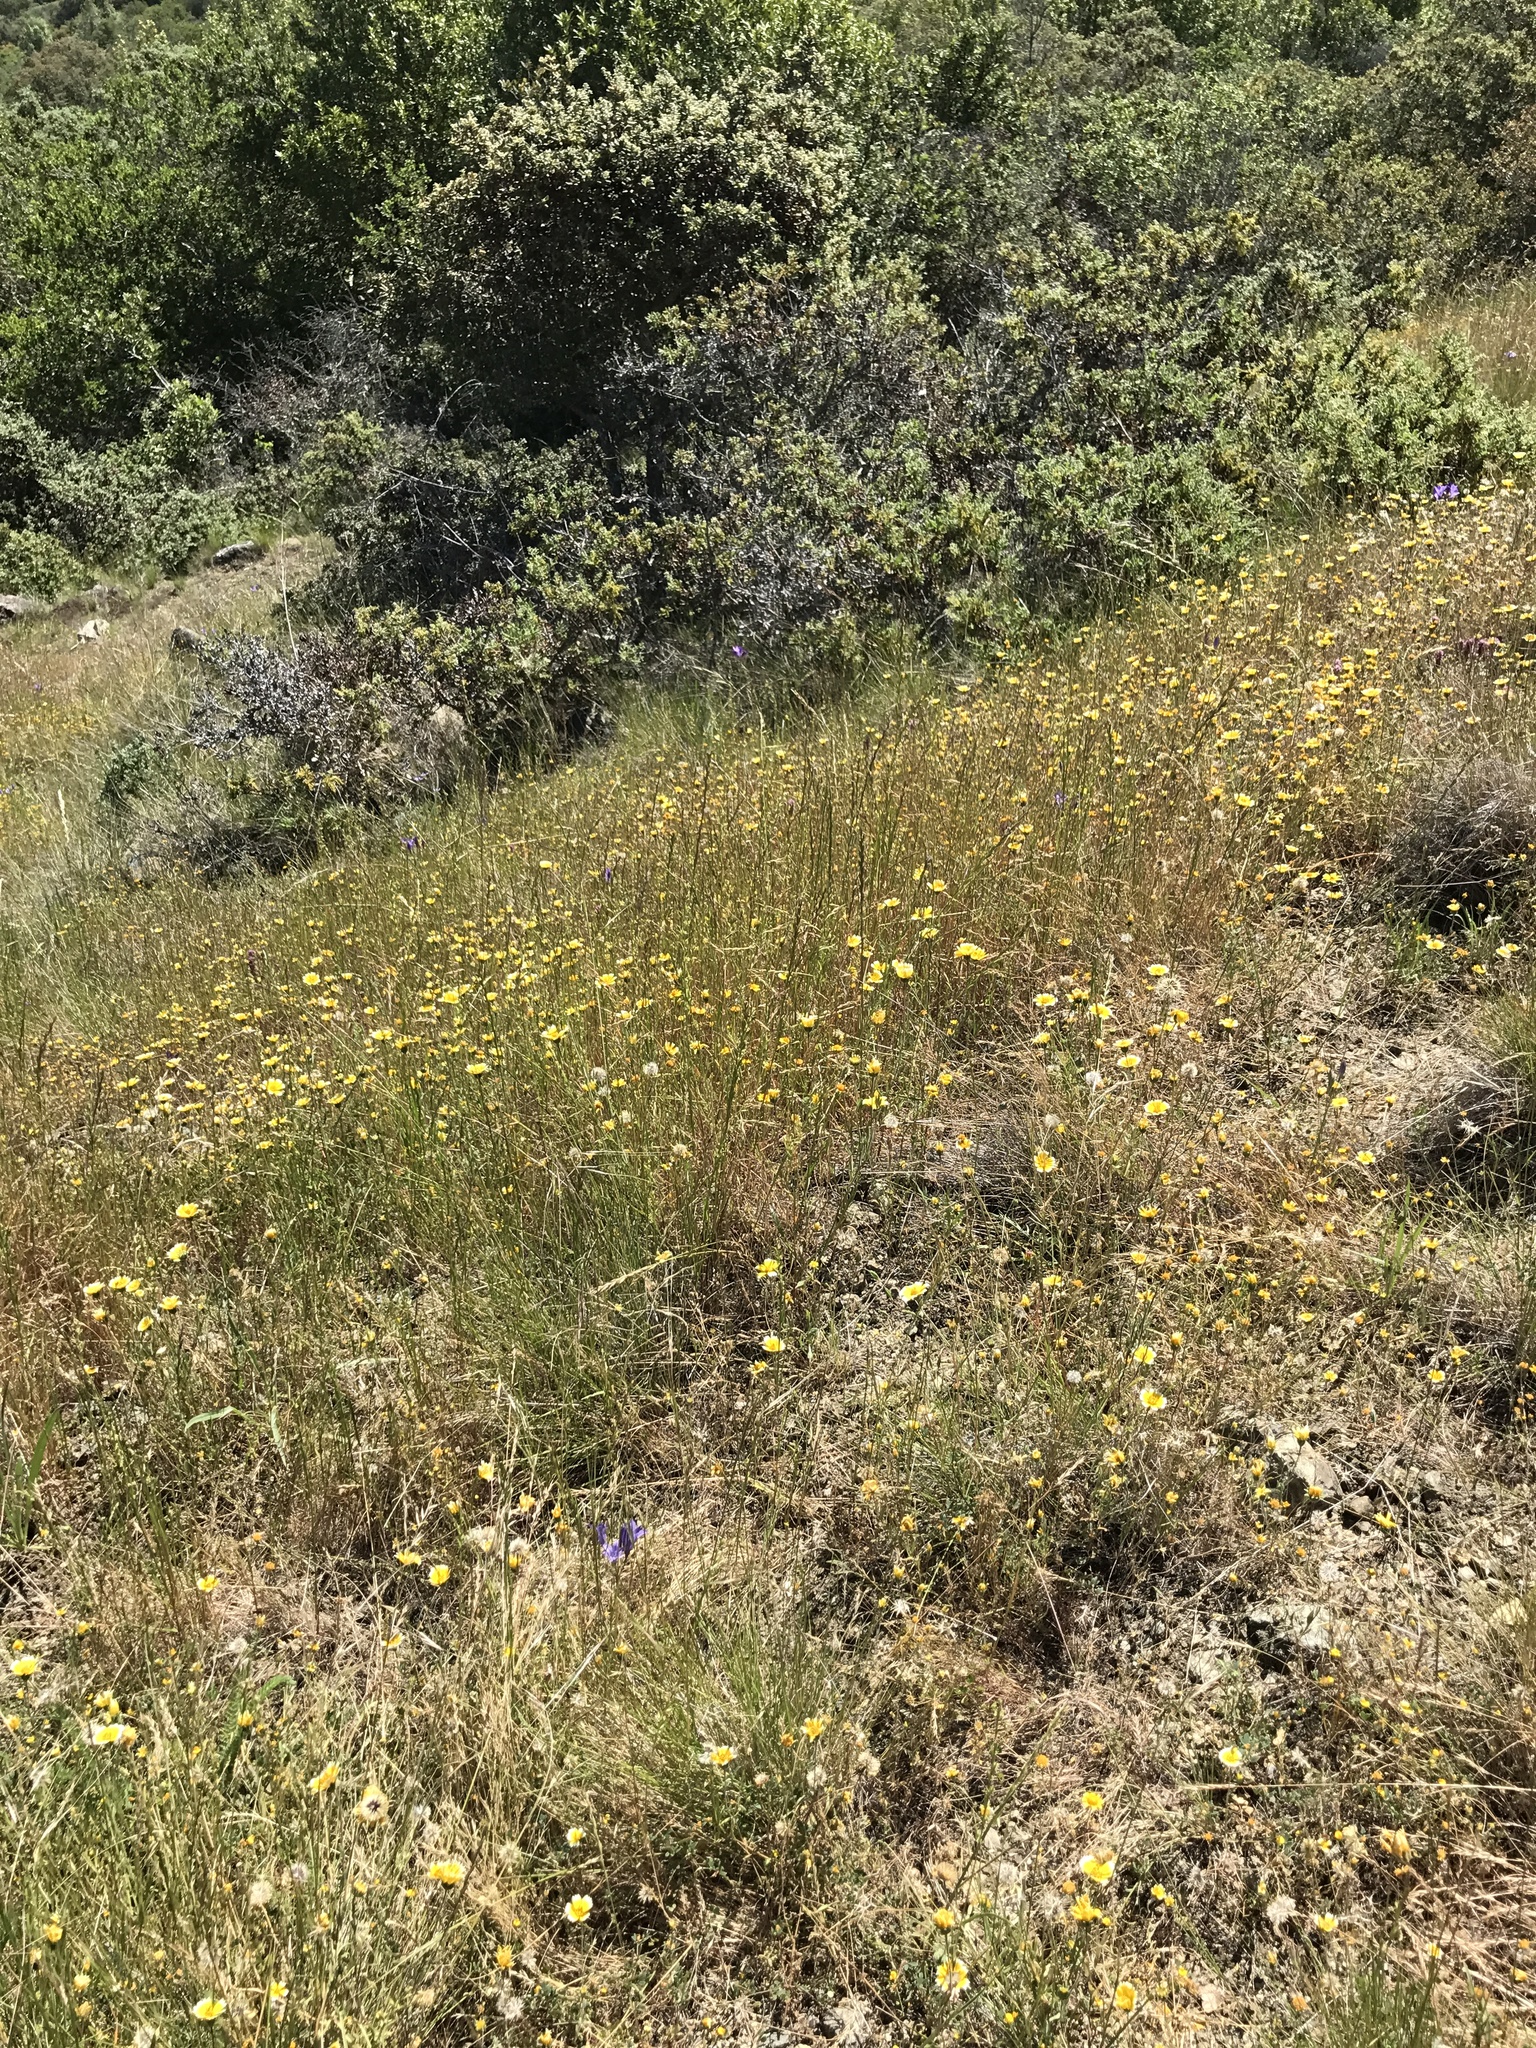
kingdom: Plantae
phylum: Tracheophyta
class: Magnoliopsida
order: Asterales
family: Asteraceae
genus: Layia
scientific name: Layia platyglossa
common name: Tidy-tips
